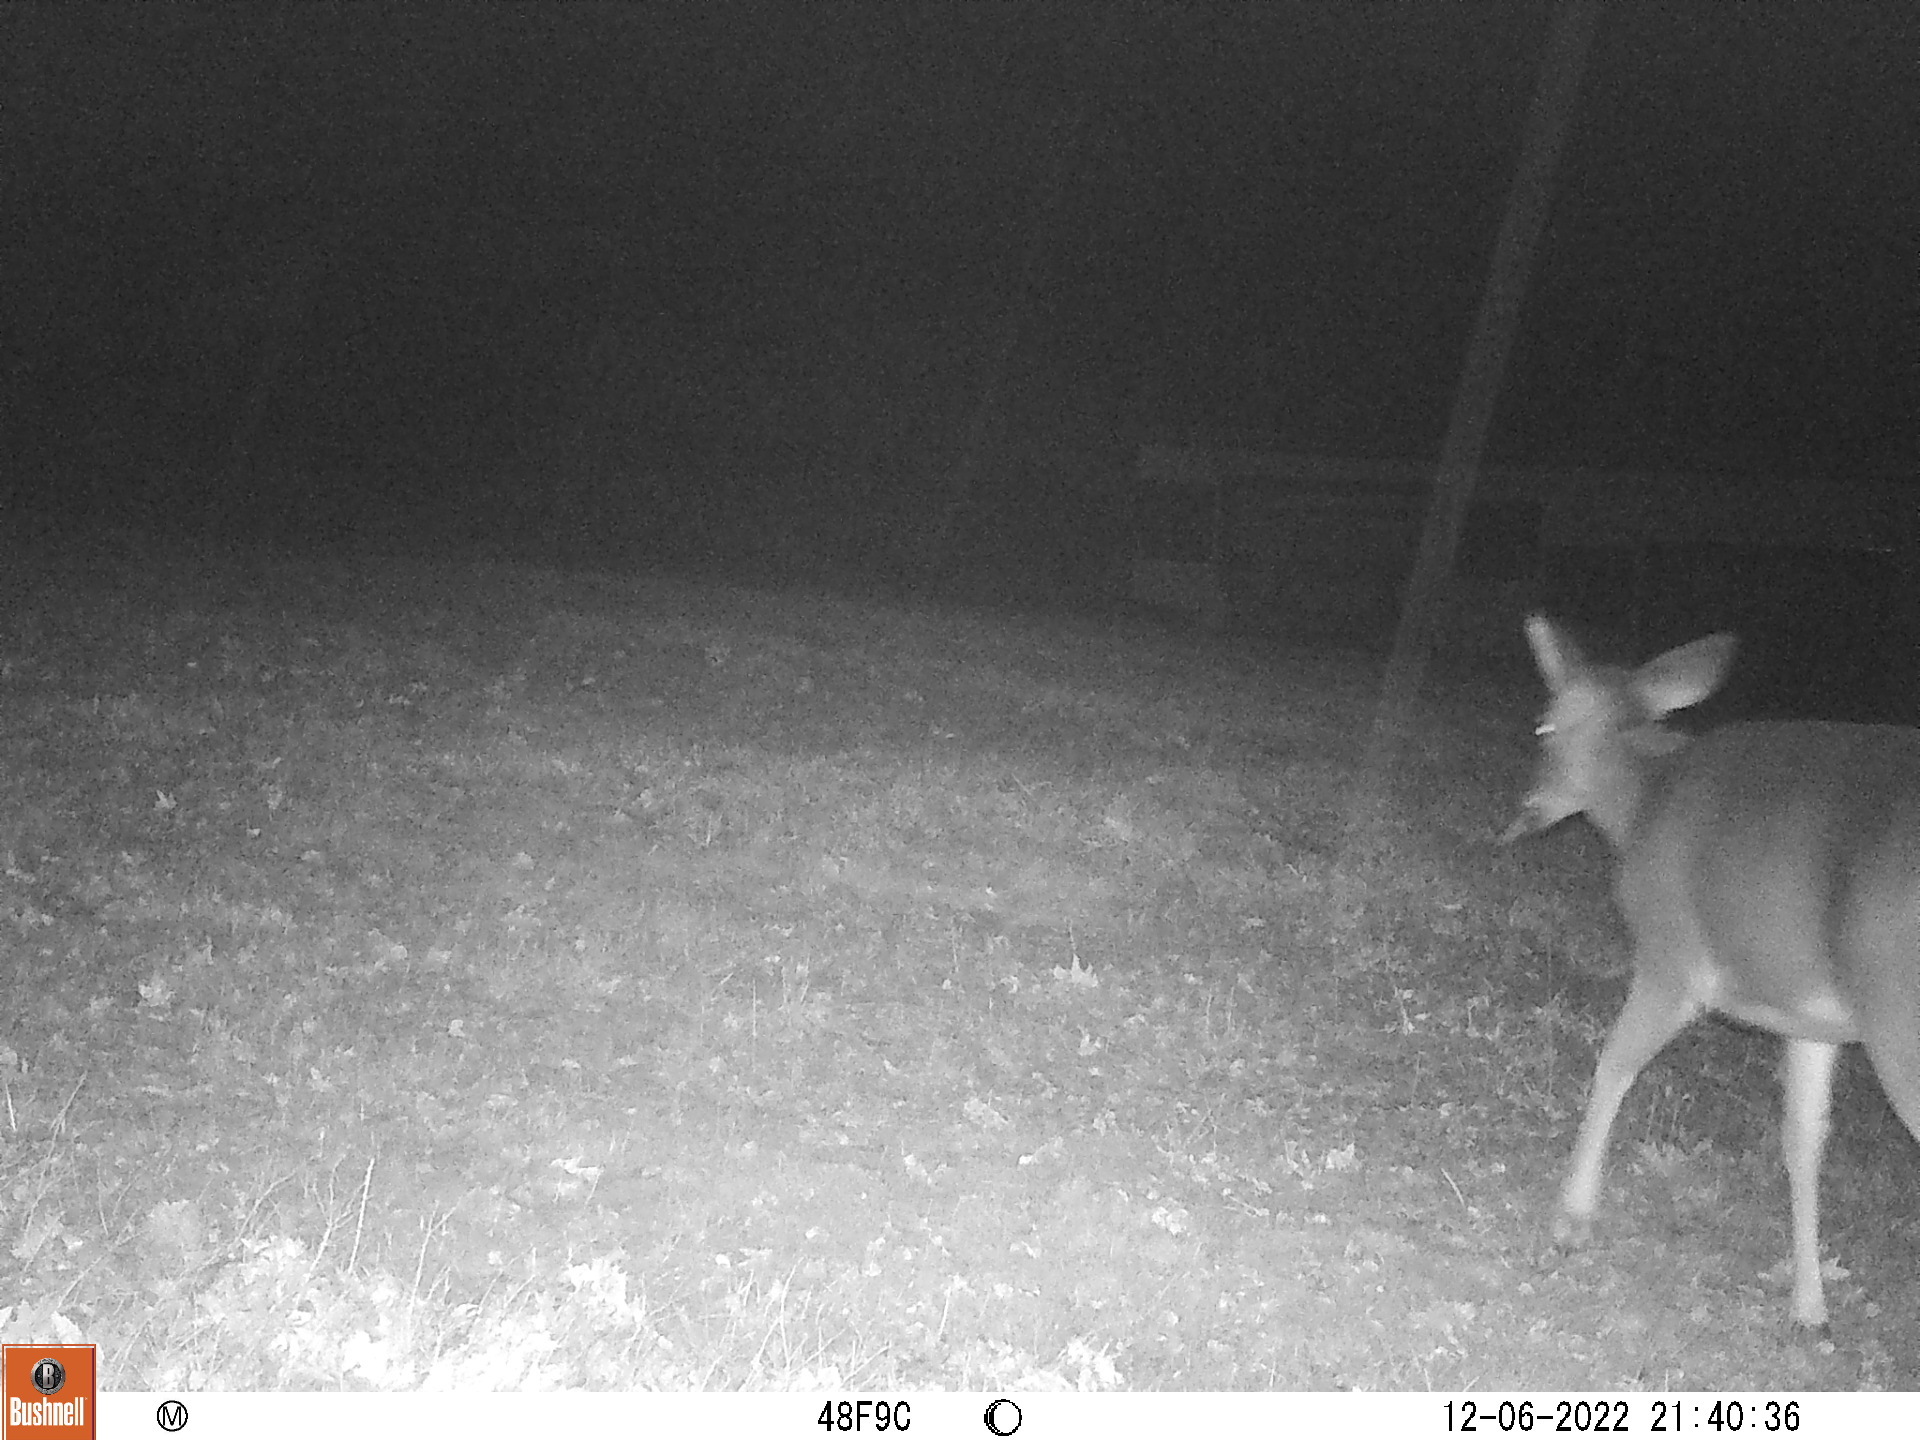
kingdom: Animalia
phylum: Chordata
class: Mammalia
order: Artiodactyla
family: Cervidae
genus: Odocoileus
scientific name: Odocoileus virginianus
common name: White-tailed deer
